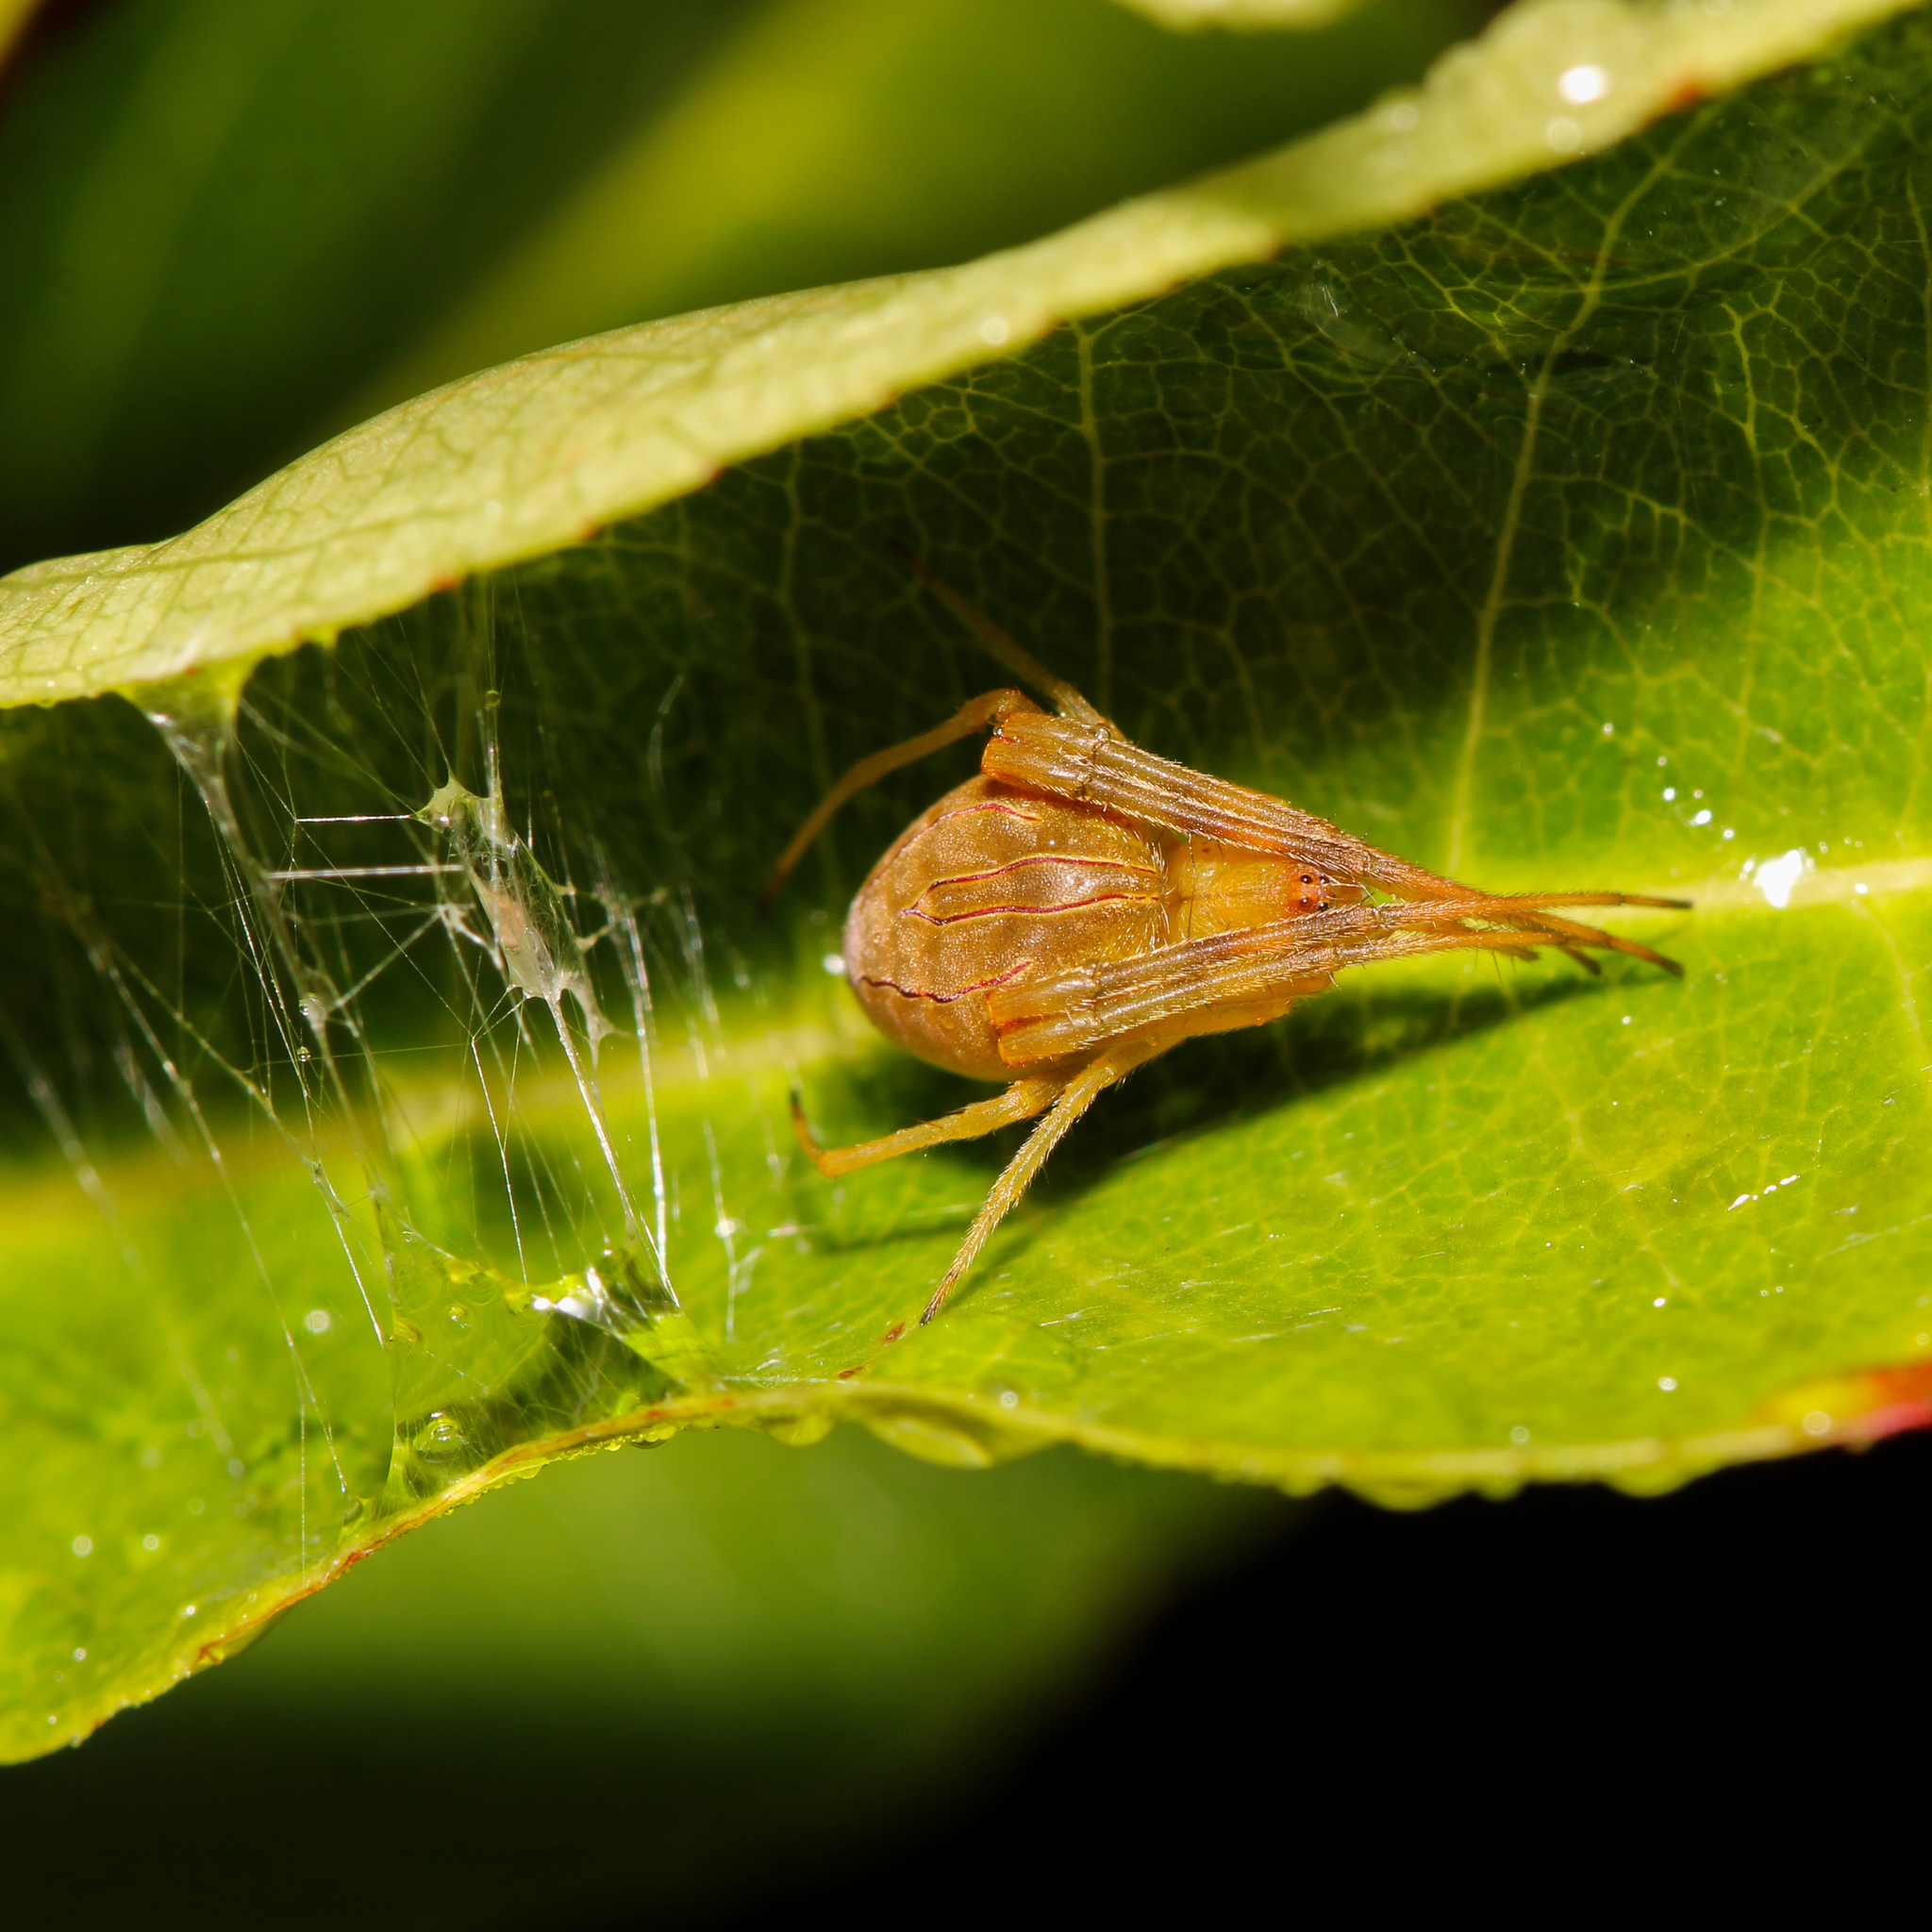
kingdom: Animalia
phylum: Arthropoda
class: Arachnida
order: Araneae
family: Araneidae
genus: Acacesia
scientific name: Acacesia hamata
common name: Orb weavers
